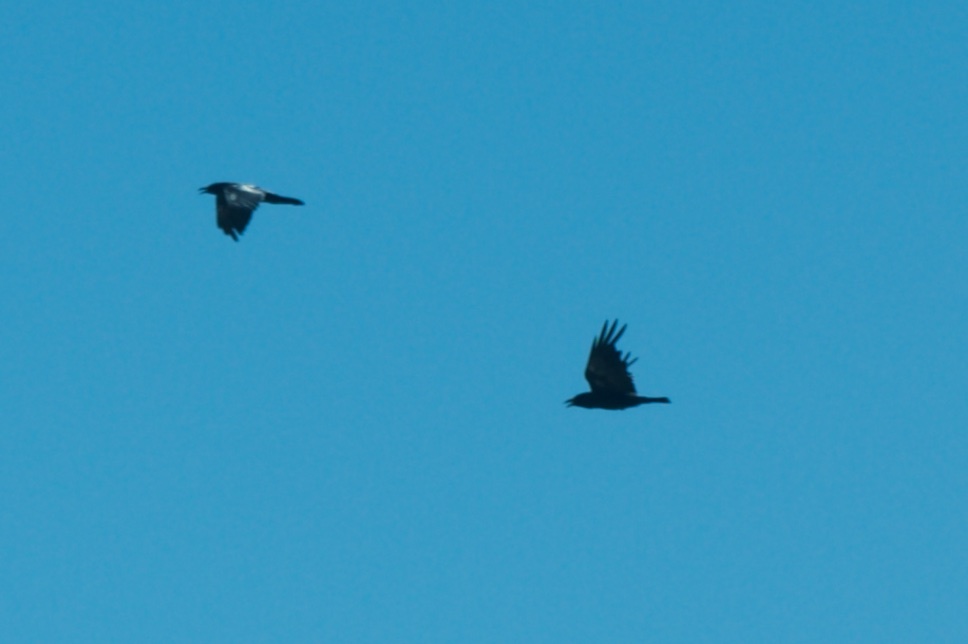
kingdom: Animalia
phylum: Chordata
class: Aves
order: Passeriformes
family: Corvidae
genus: Corvus
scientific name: Corvus corax
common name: Common raven
